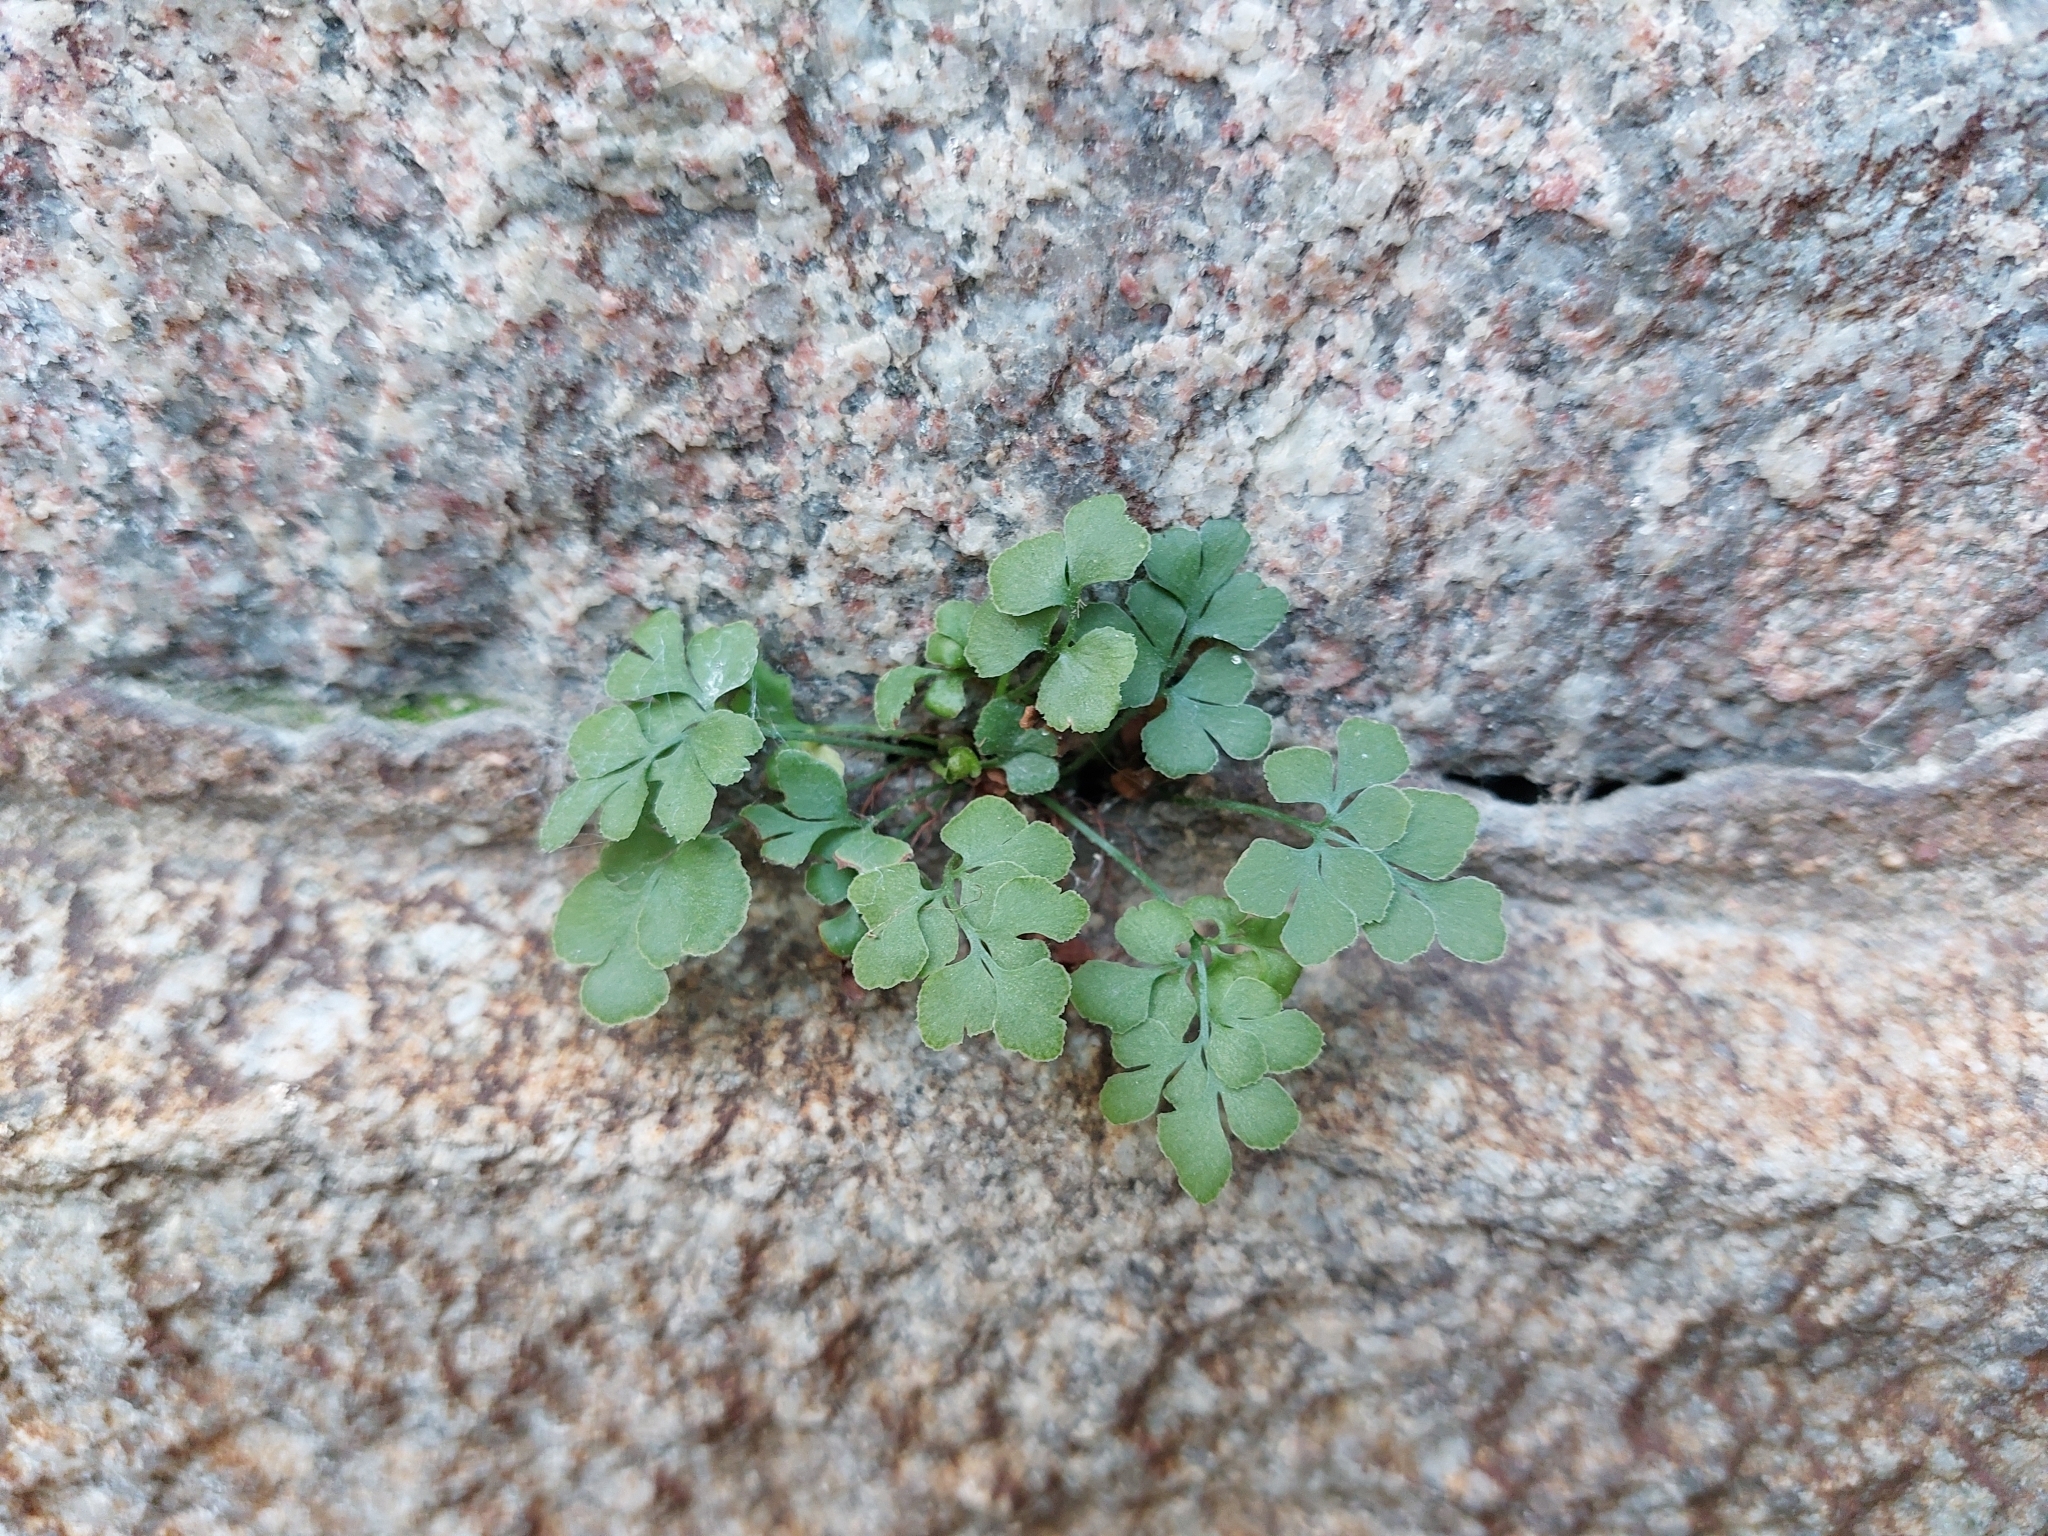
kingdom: Plantae
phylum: Tracheophyta
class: Polypodiopsida
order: Polypodiales
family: Aspleniaceae
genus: Asplenium
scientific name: Asplenium ruta-muraria
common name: Wall-rue
